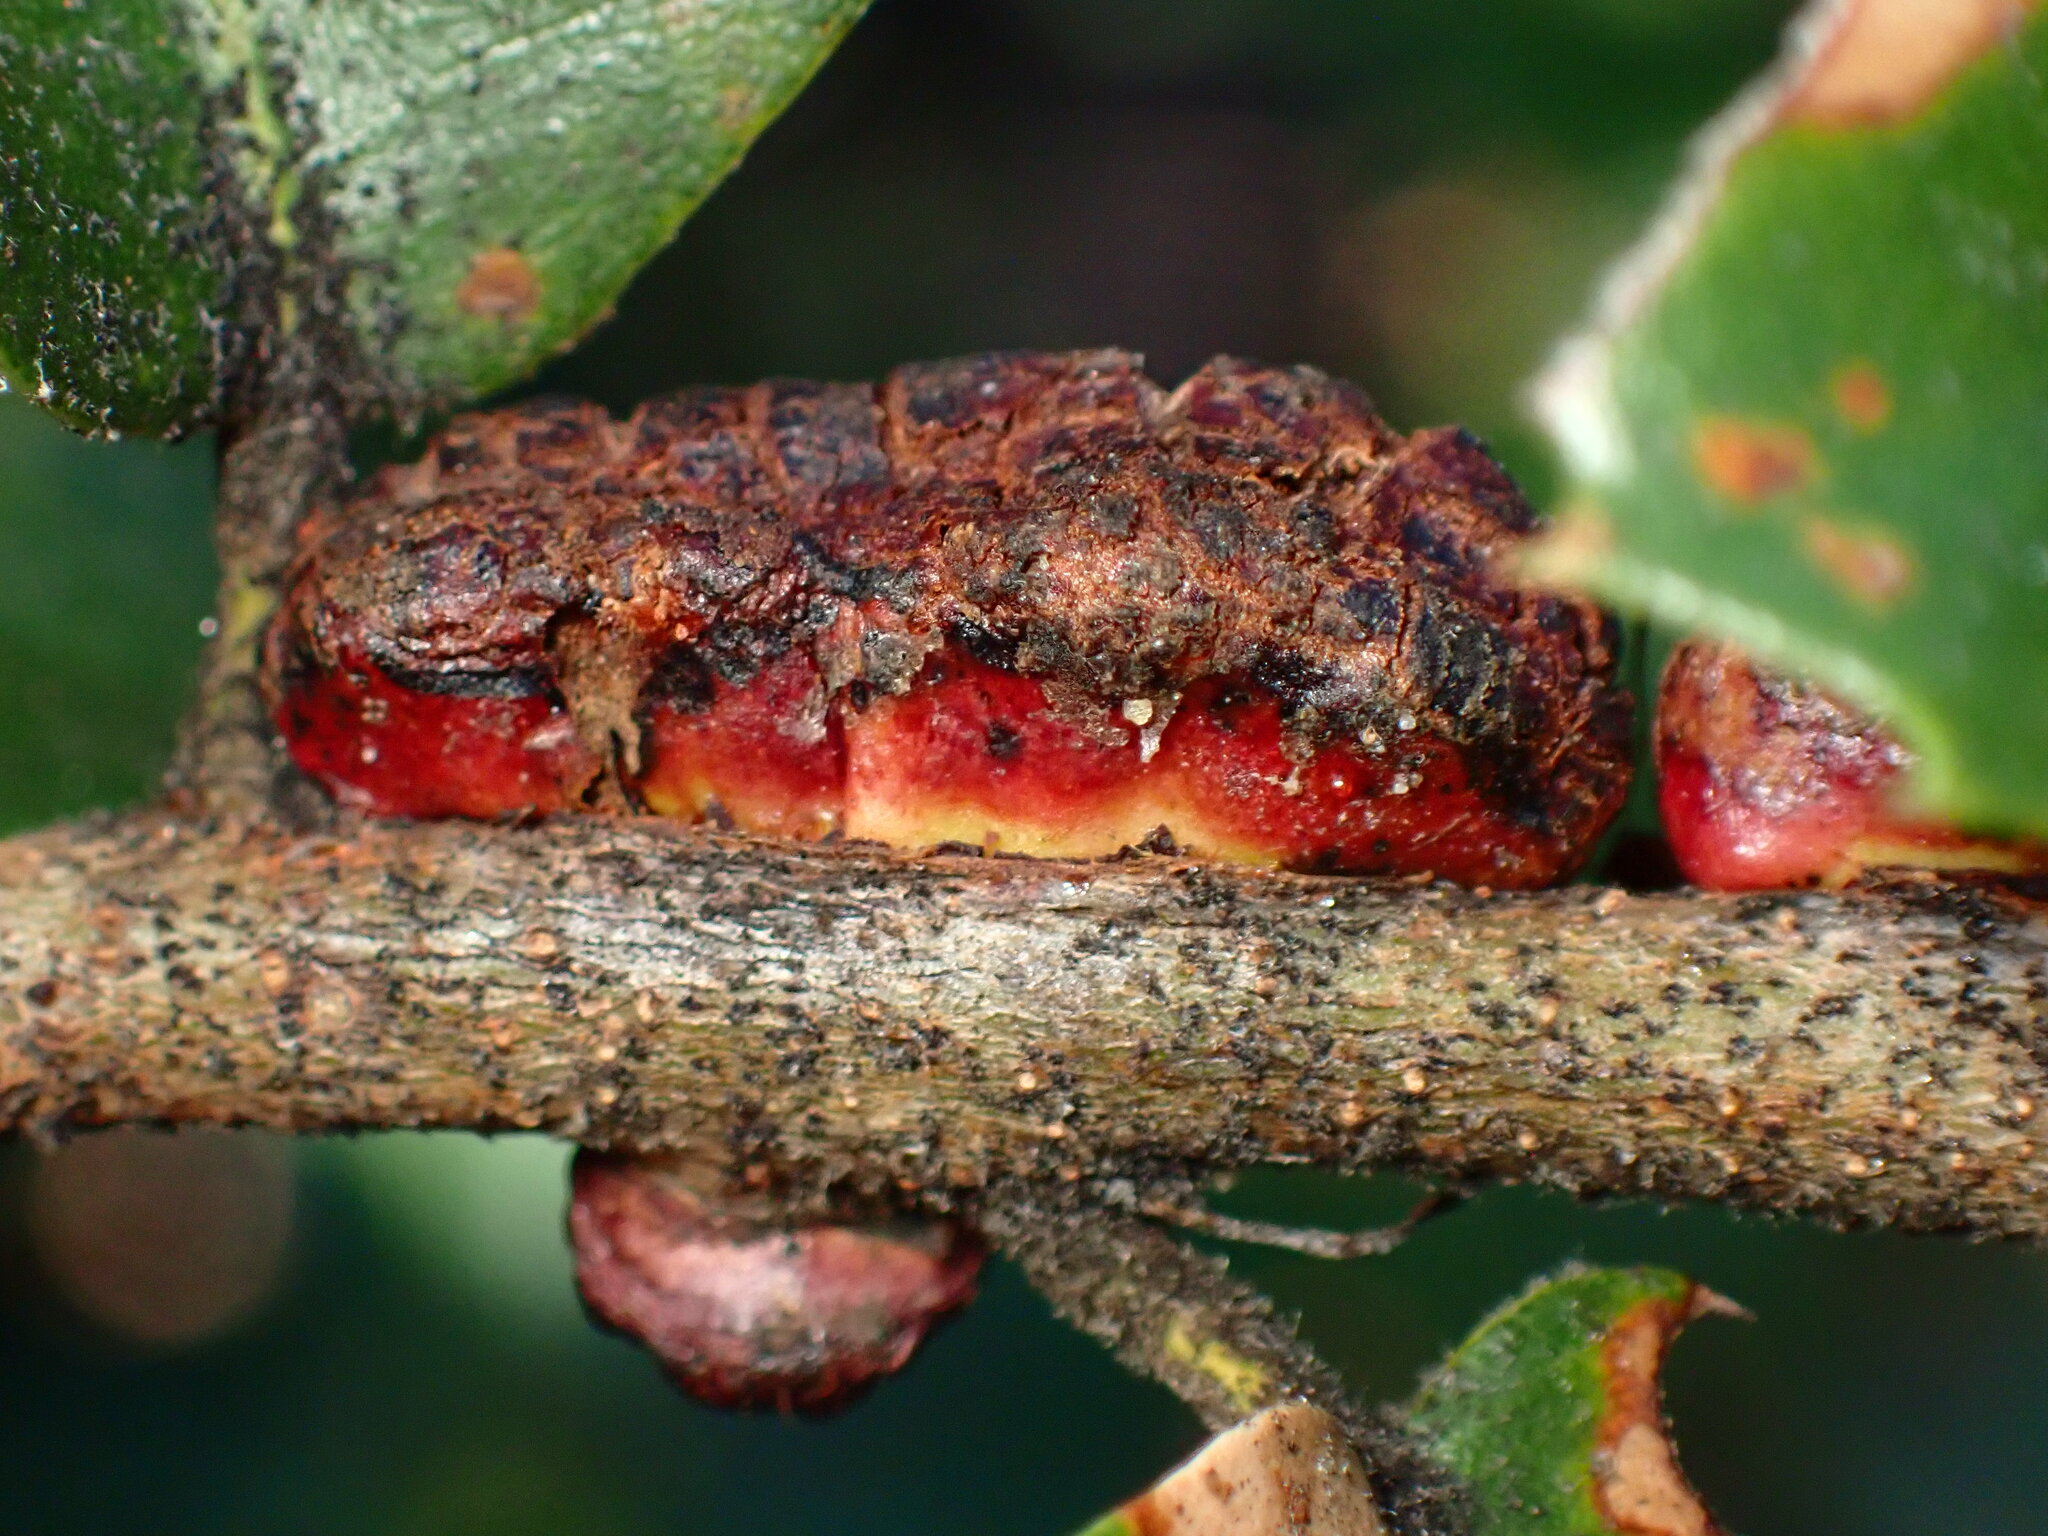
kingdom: Animalia
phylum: Arthropoda
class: Insecta
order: Hymenoptera
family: Cynipidae
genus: Disholandricus
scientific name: Disholandricus
